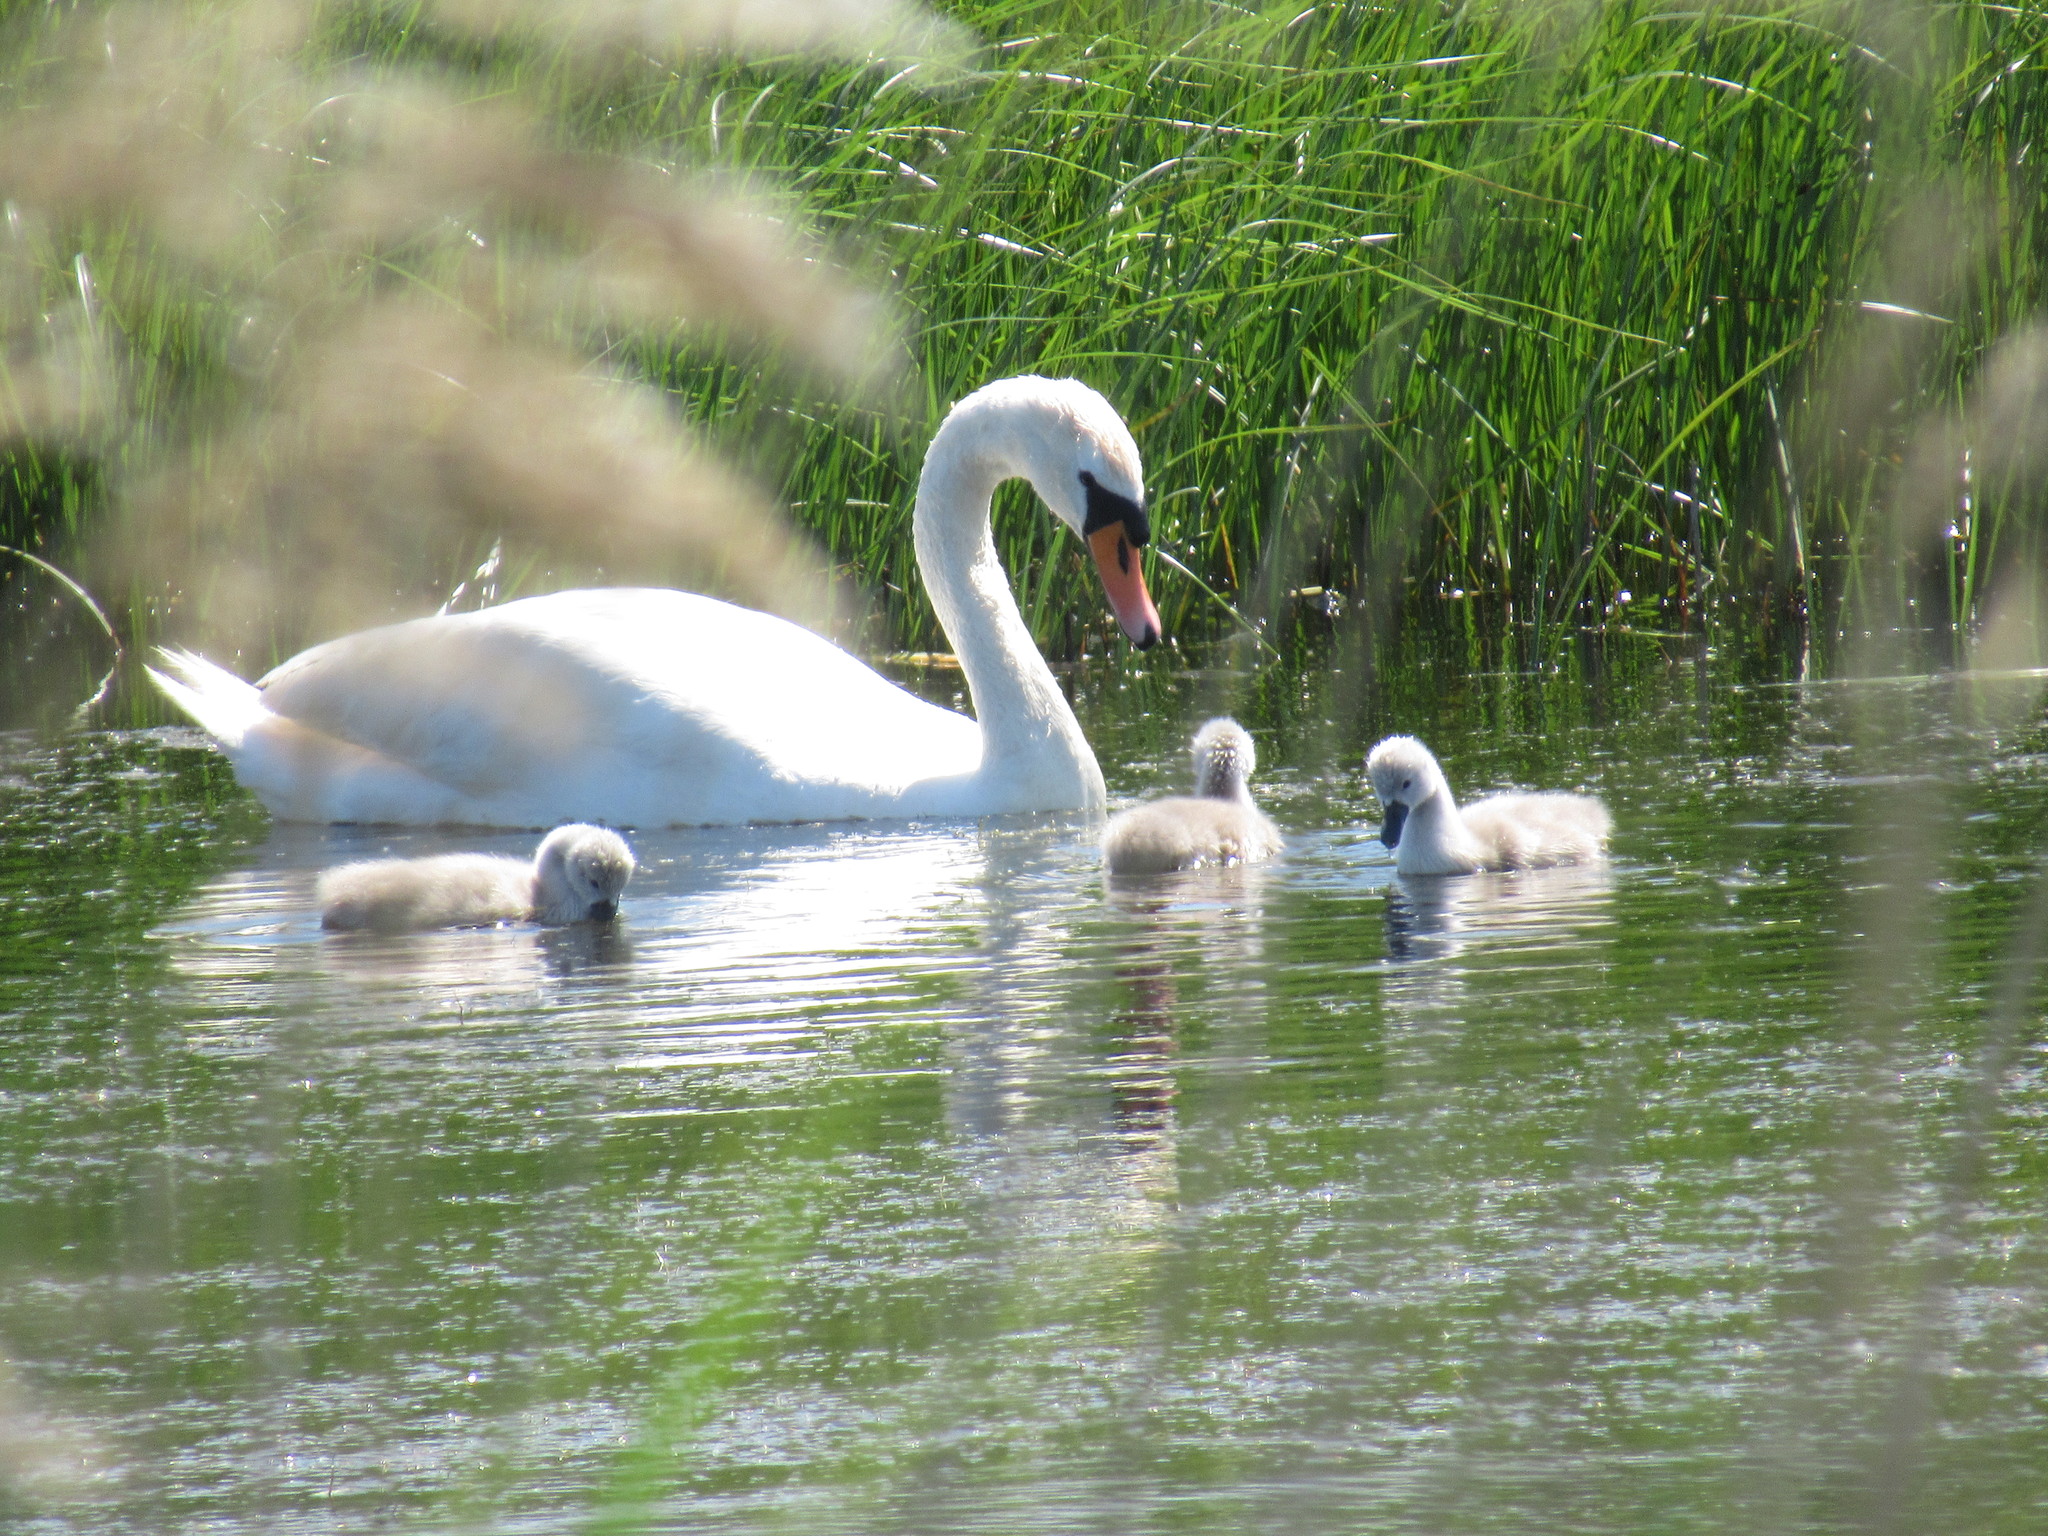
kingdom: Animalia
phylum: Chordata
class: Aves
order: Anseriformes
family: Anatidae
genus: Cygnus
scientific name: Cygnus olor
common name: Mute swan
